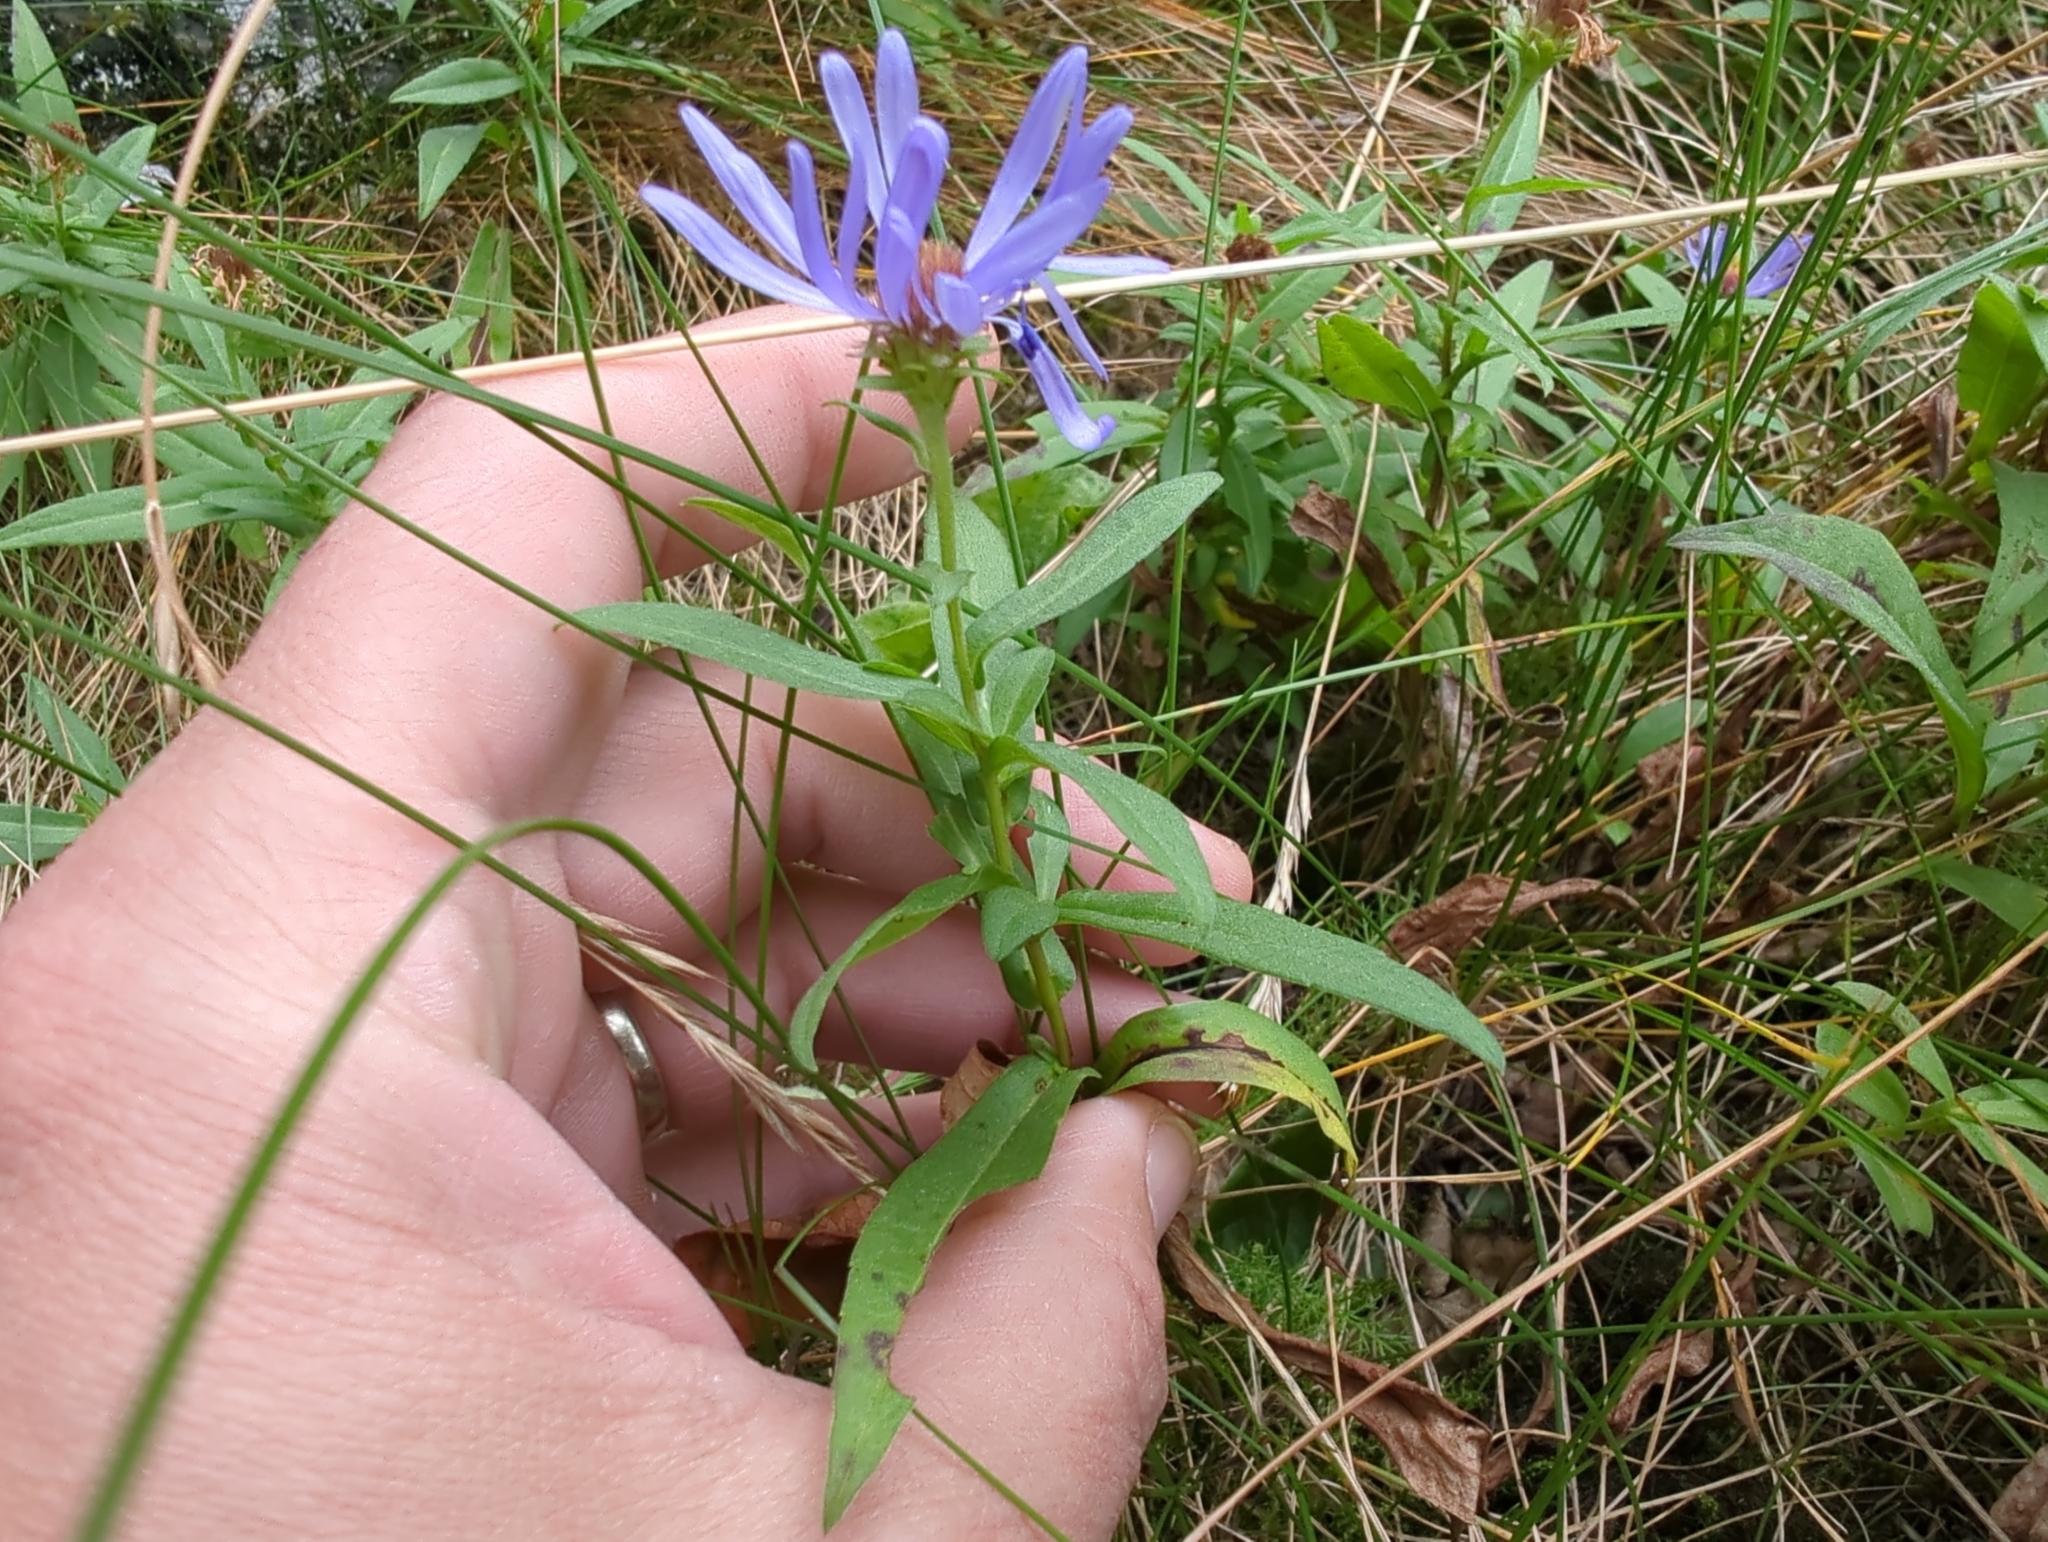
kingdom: Plantae
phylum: Tracheophyta
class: Magnoliopsida
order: Asterales
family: Asteraceae
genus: Symphyotrichum
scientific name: Symphyotrichum subspicatum
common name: Douglas' aster
